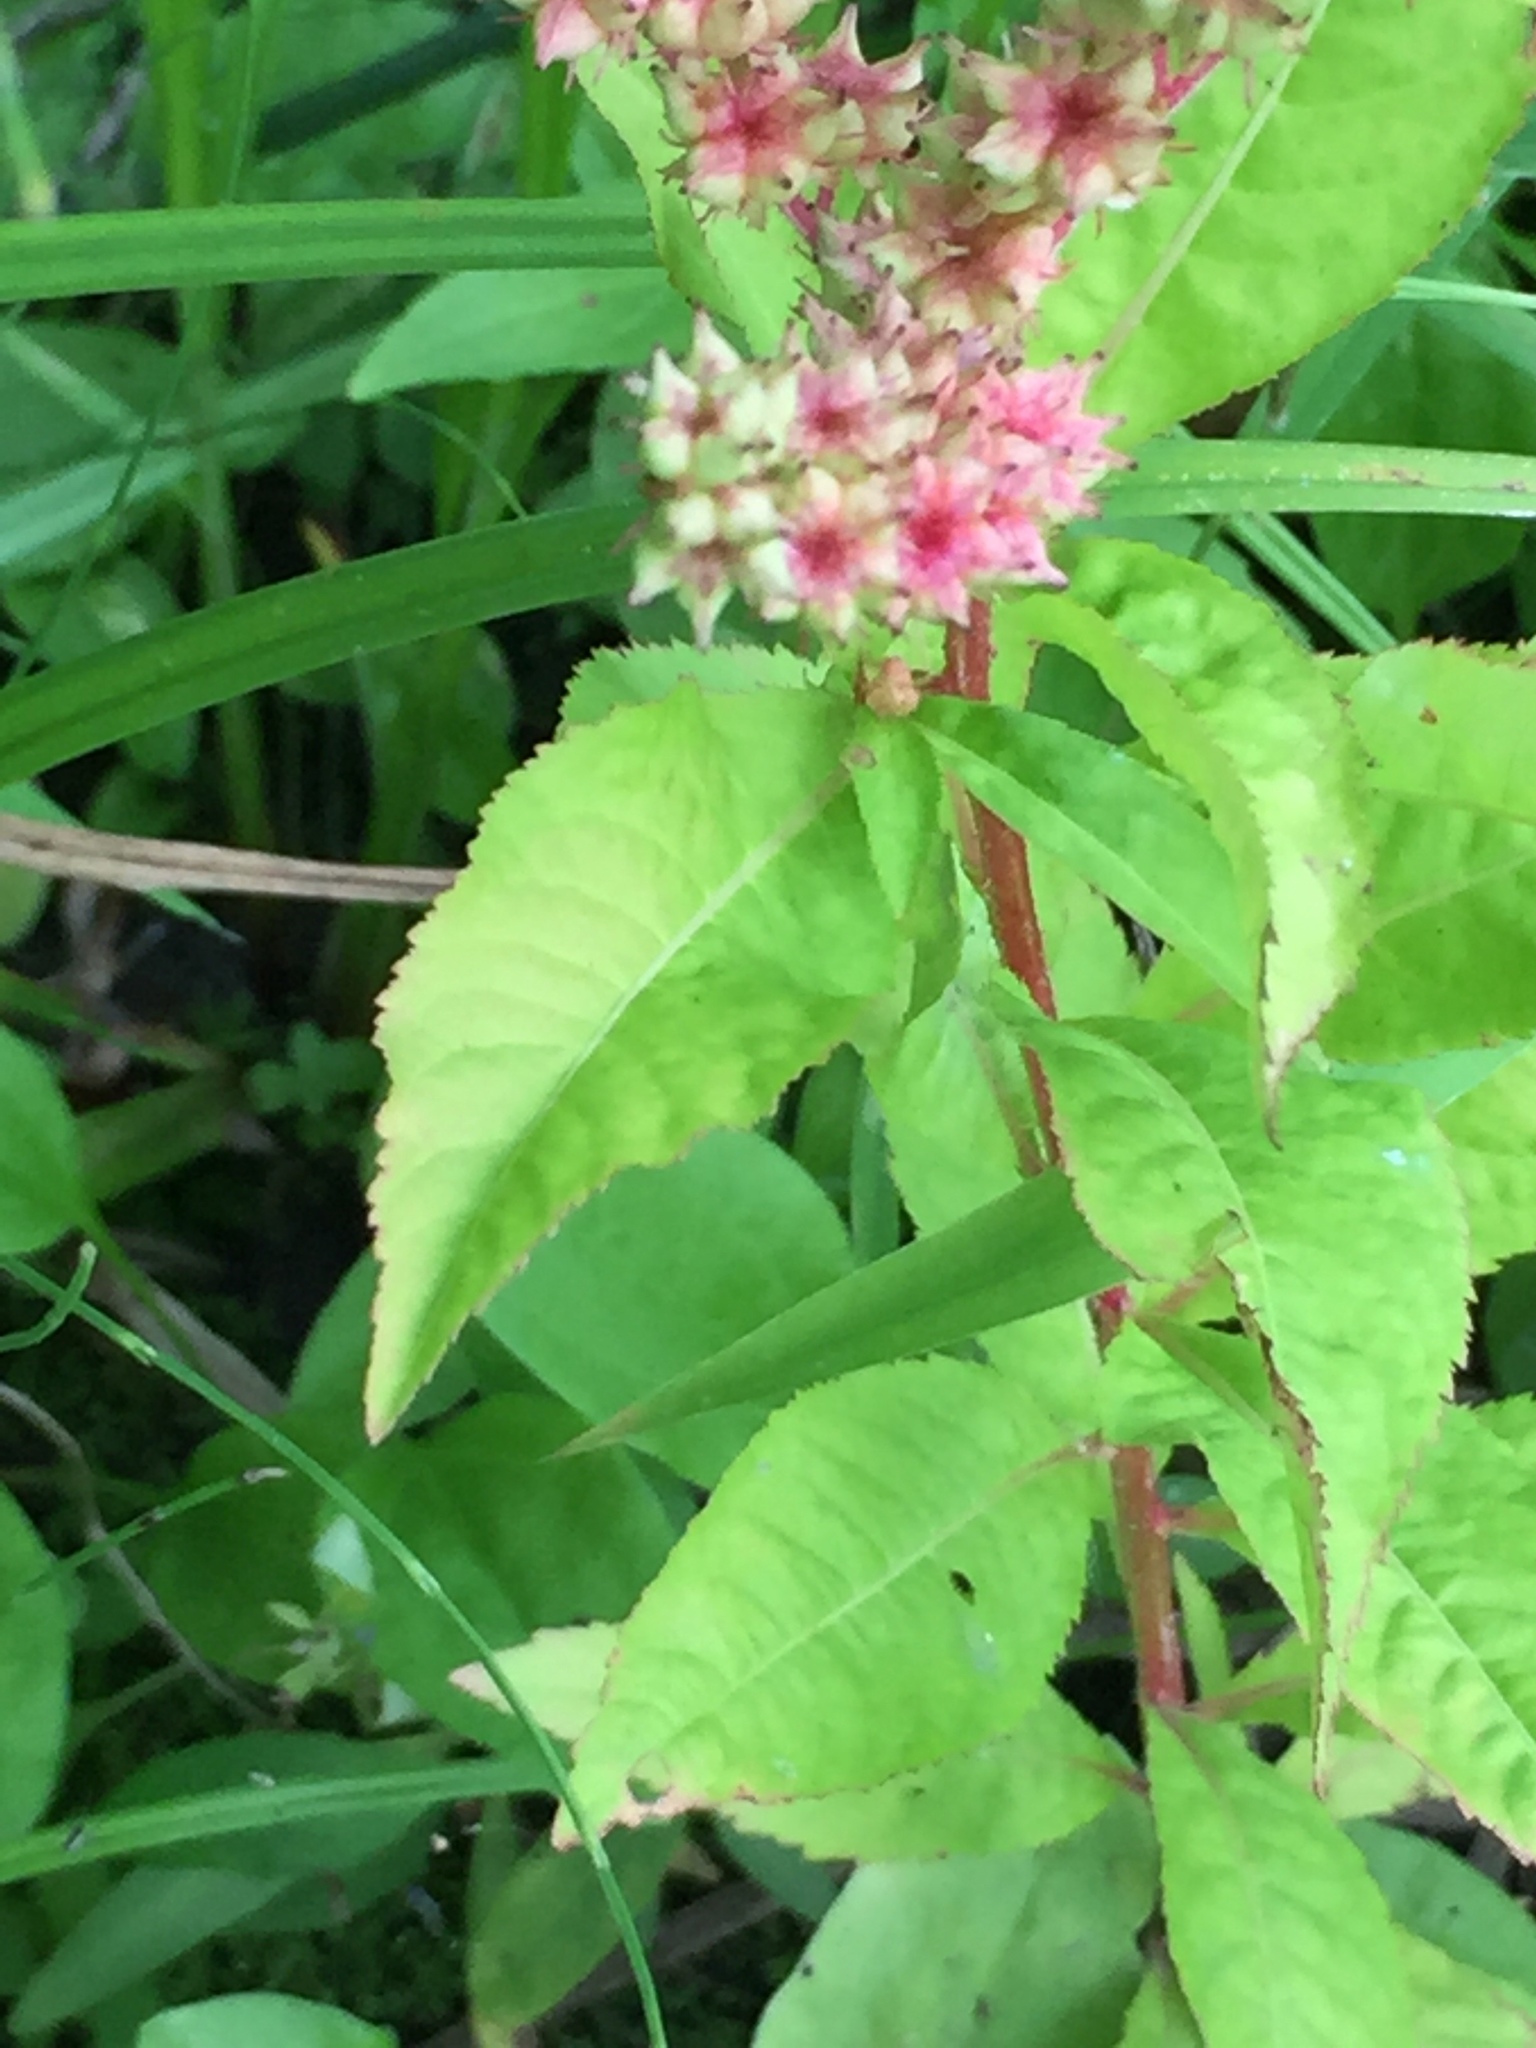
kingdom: Plantae
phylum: Tracheophyta
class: Magnoliopsida
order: Saxifragales
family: Penthoraceae
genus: Penthorum
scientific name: Penthorum sedoides
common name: Ditch stonecrop
